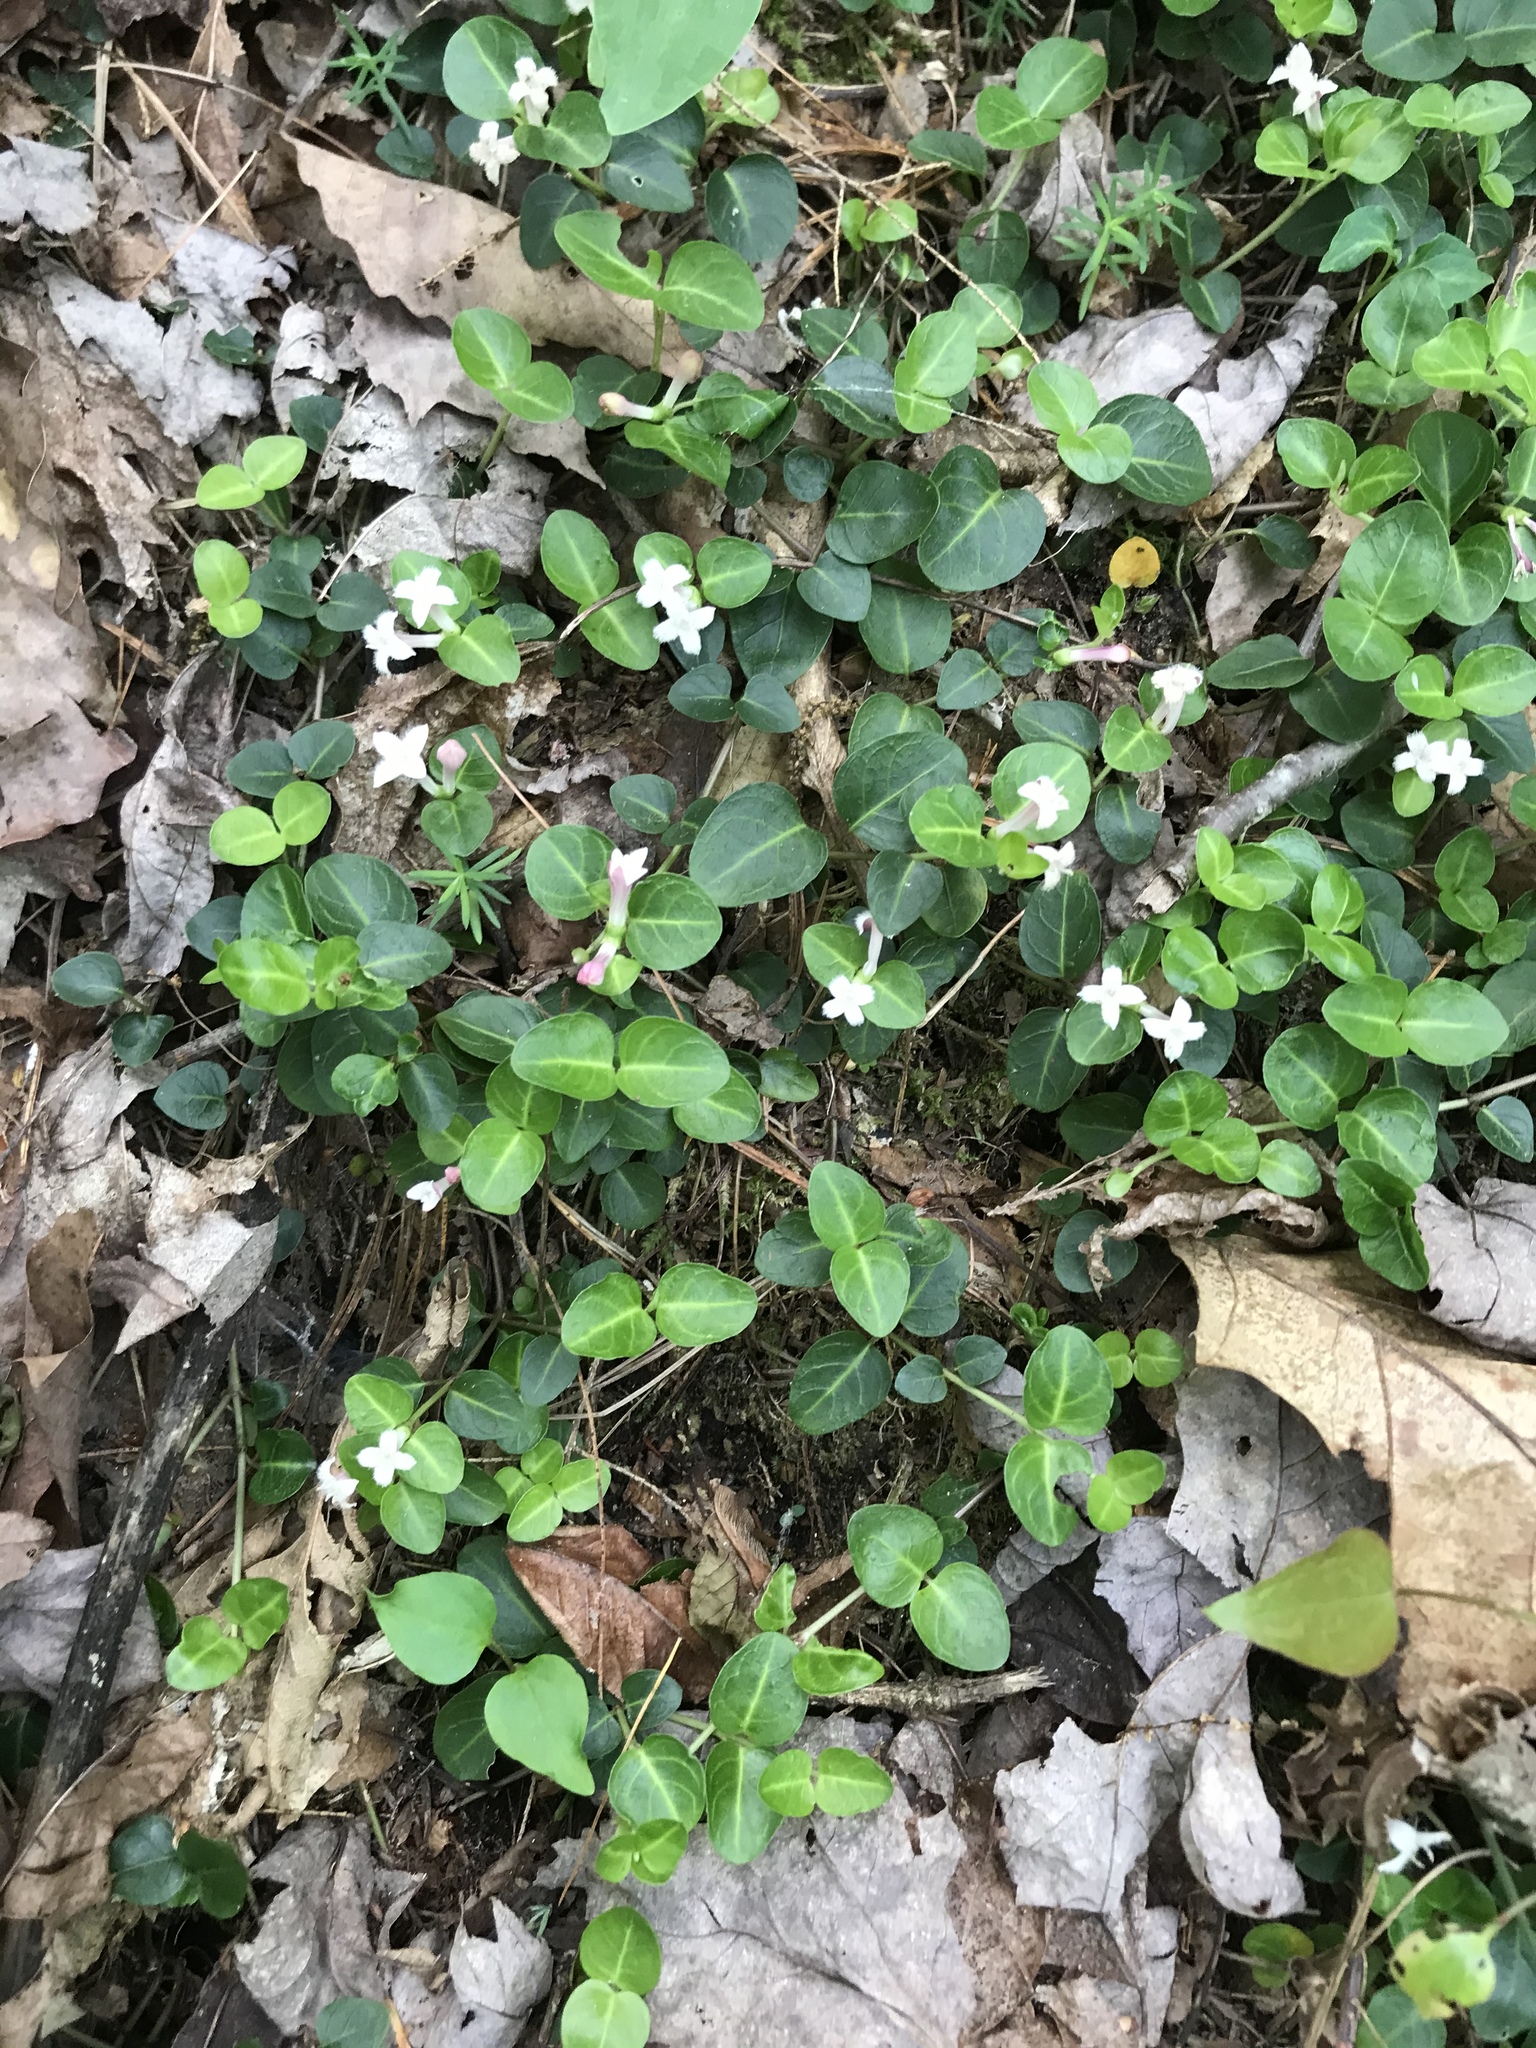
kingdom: Plantae
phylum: Tracheophyta
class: Magnoliopsida
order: Gentianales
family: Rubiaceae
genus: Mitchella
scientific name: Mitchella repens
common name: Partridge-berry
